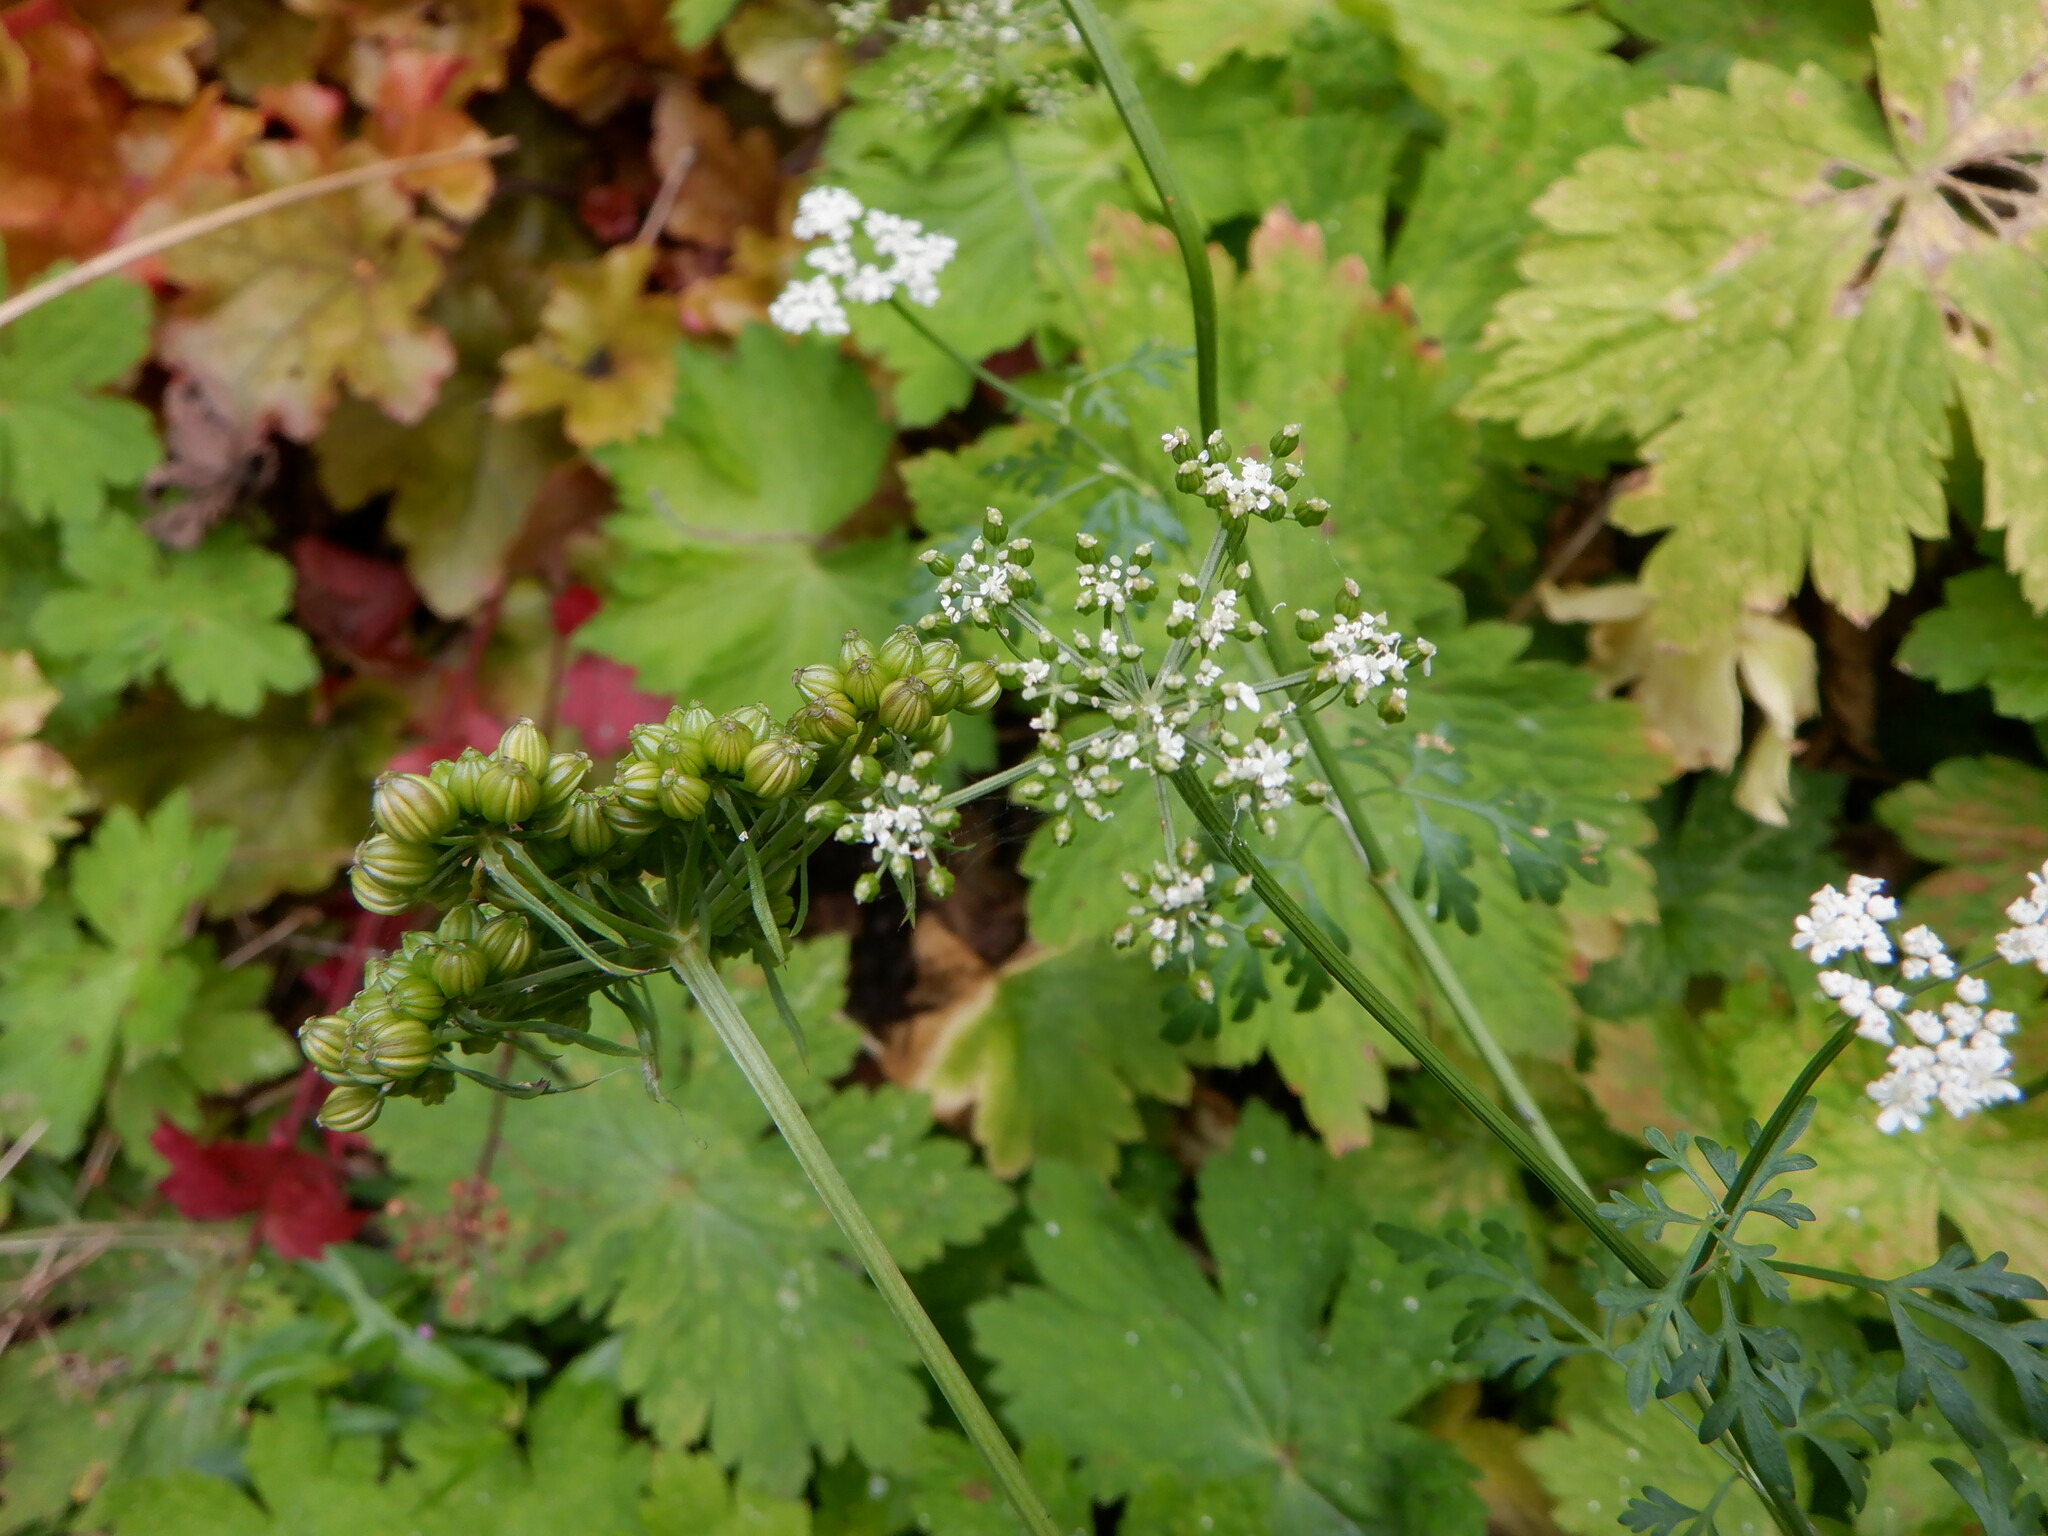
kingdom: Plantae
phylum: Tracheophyta
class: Magnoliopsida
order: Apiales
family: Apiaceae
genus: Aethusa
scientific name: Aethusa cynapium
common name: Fool's parsley
